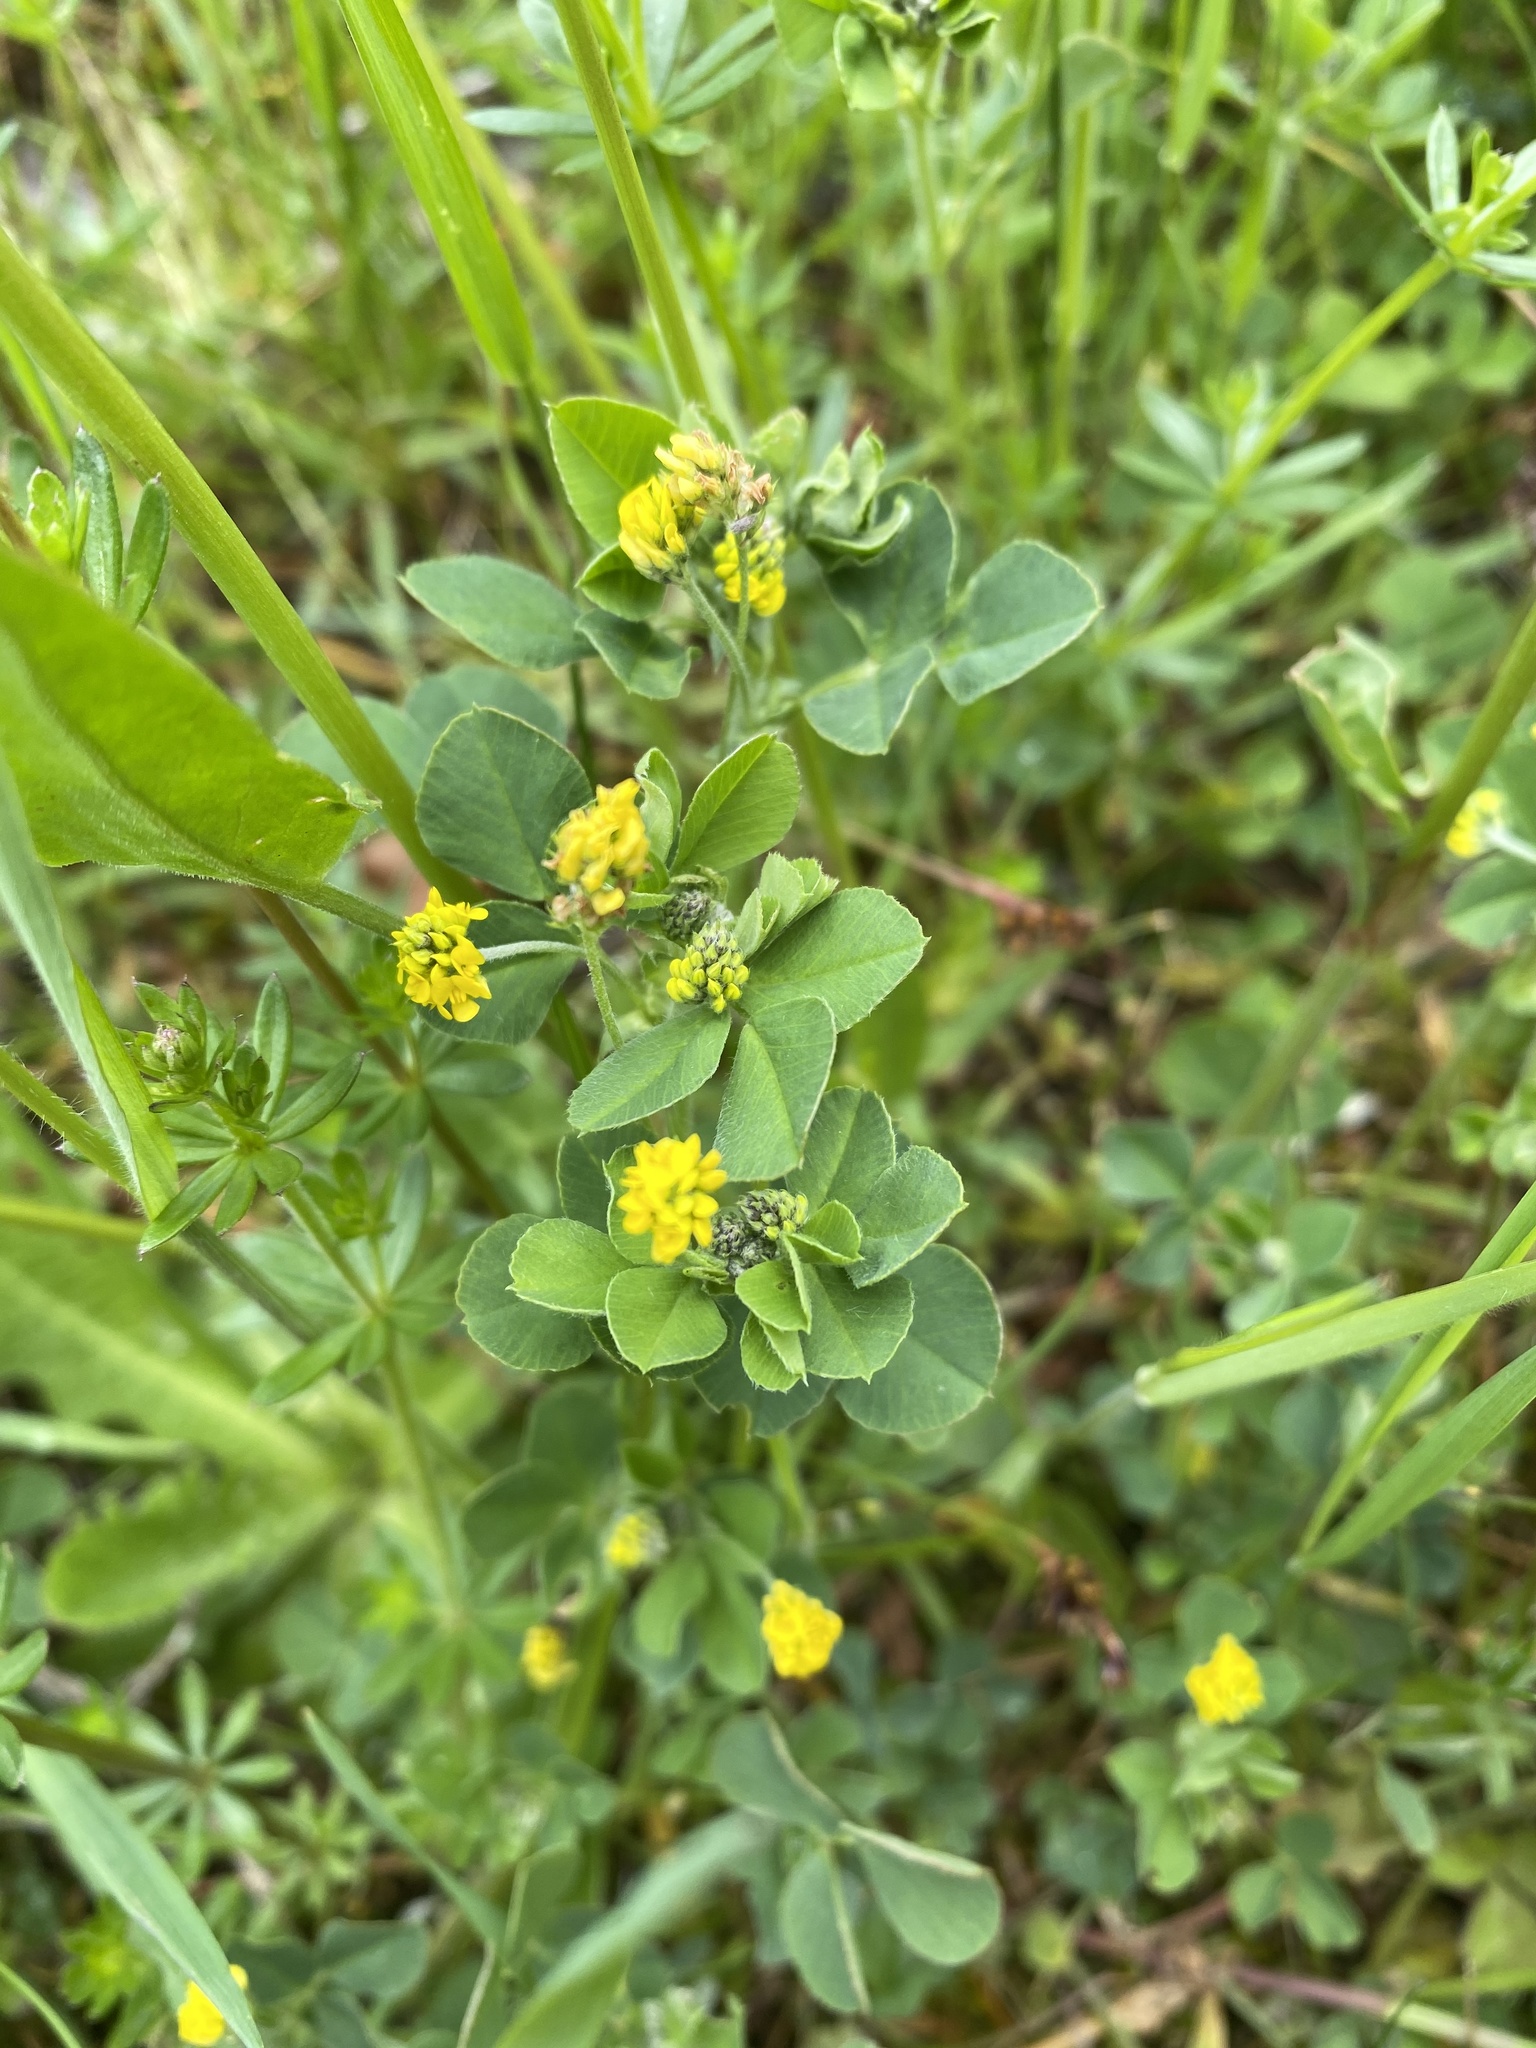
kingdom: Plantae
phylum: Tracheophyta
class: Magnoliopsida
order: Fabales
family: Fabaceae
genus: Medicago
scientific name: Medicago lupulina
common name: Black medick
